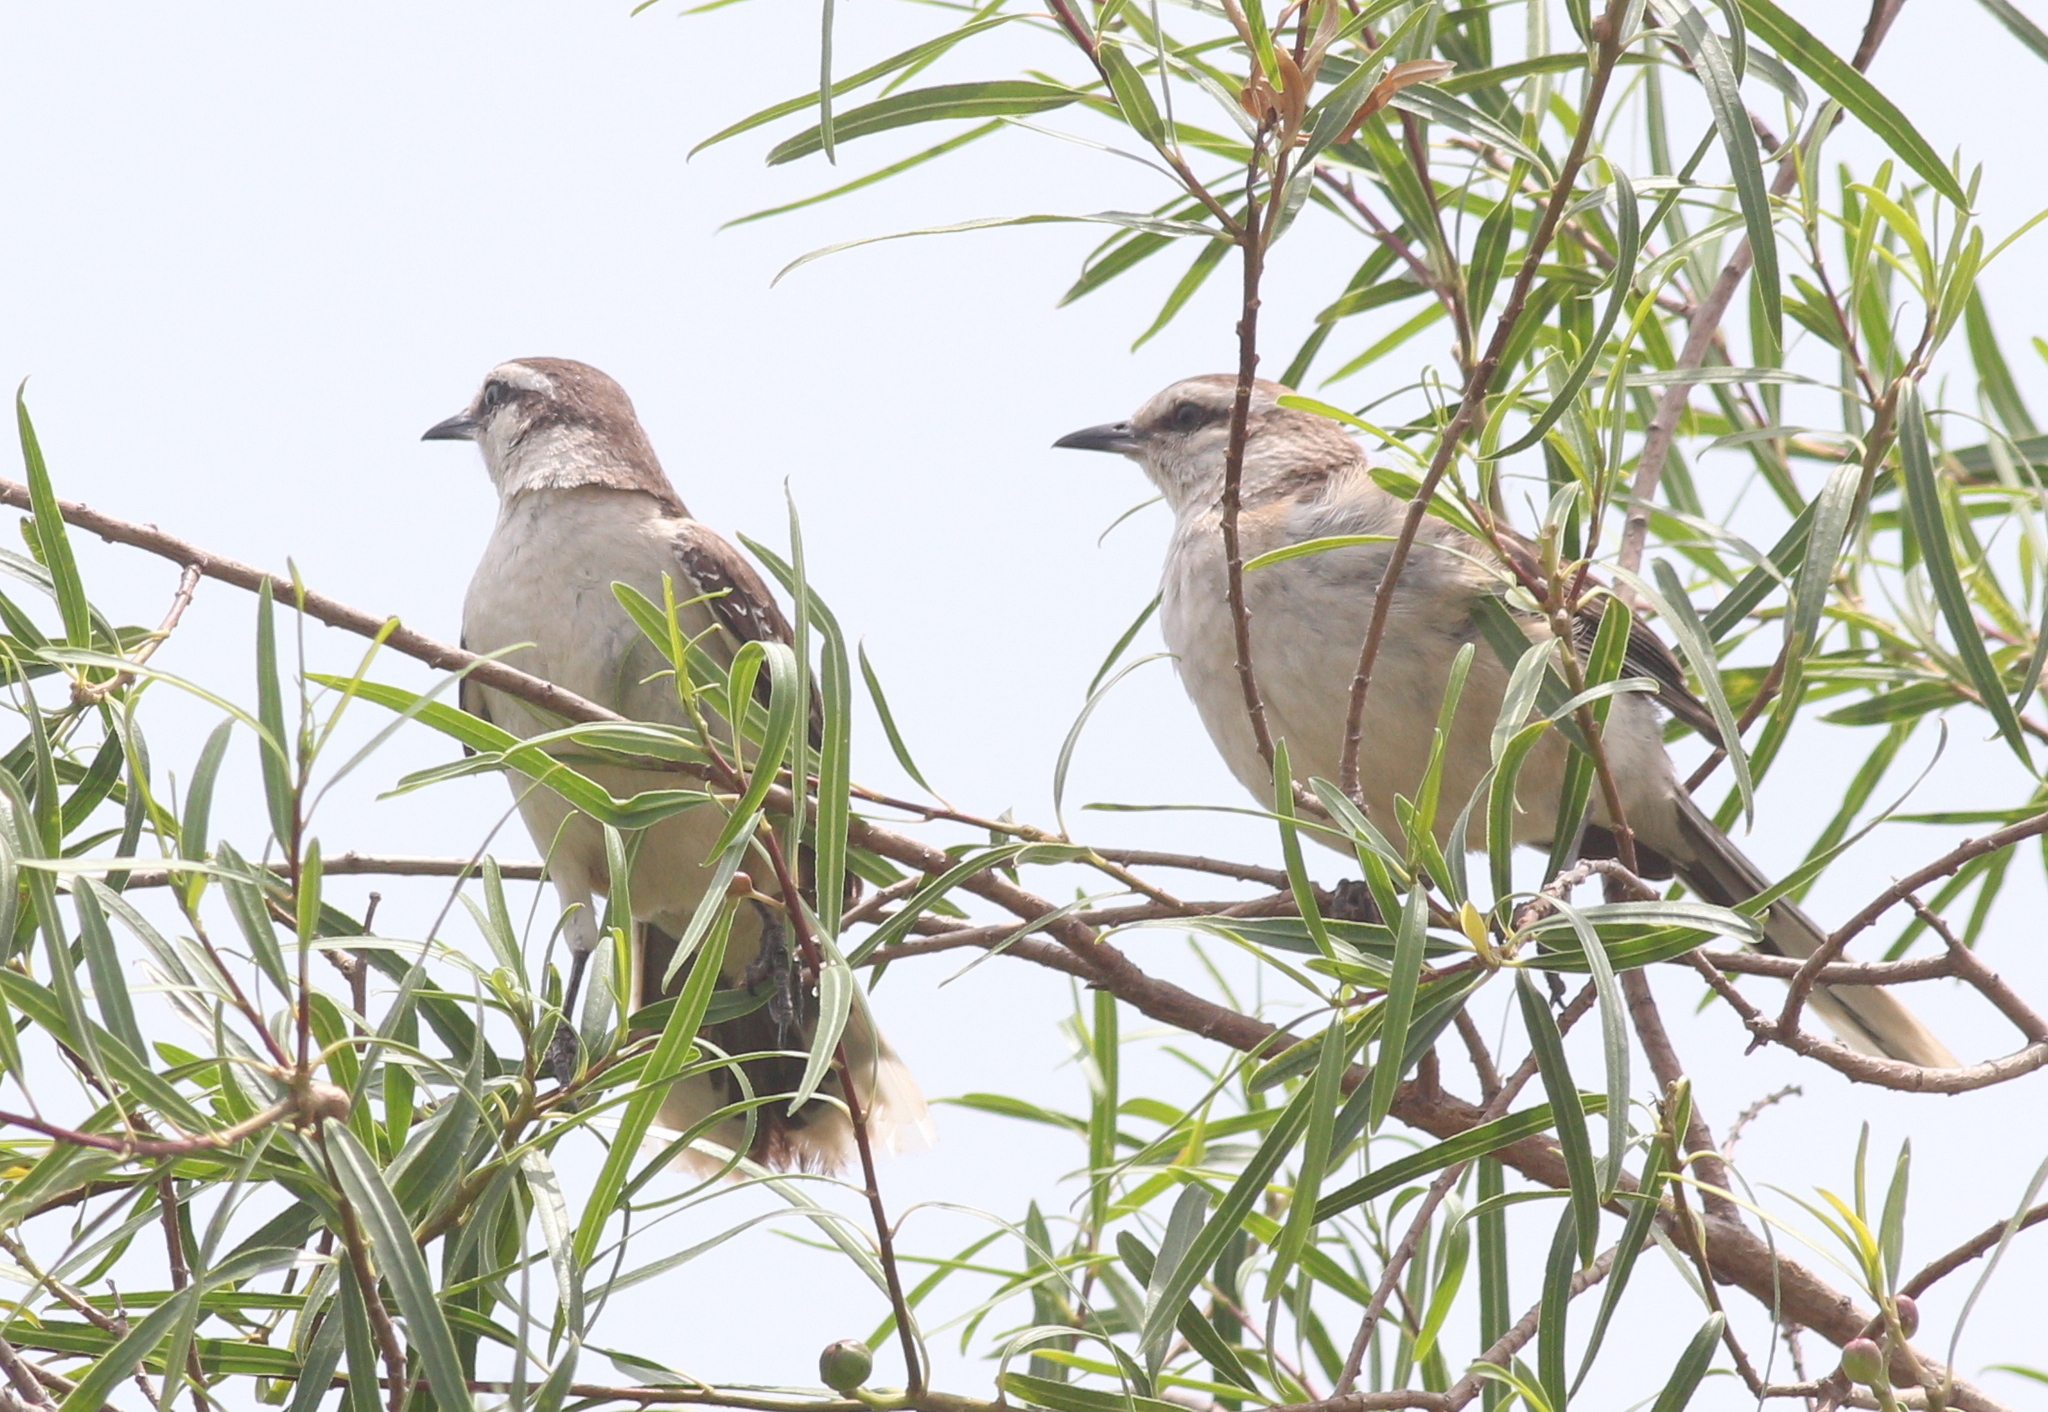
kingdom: Animalia
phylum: Chordata
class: Aves
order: Passeriformes
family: Mimidae
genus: Mimus
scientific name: Mimus saturninus
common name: Chalk-browed mockingbird
